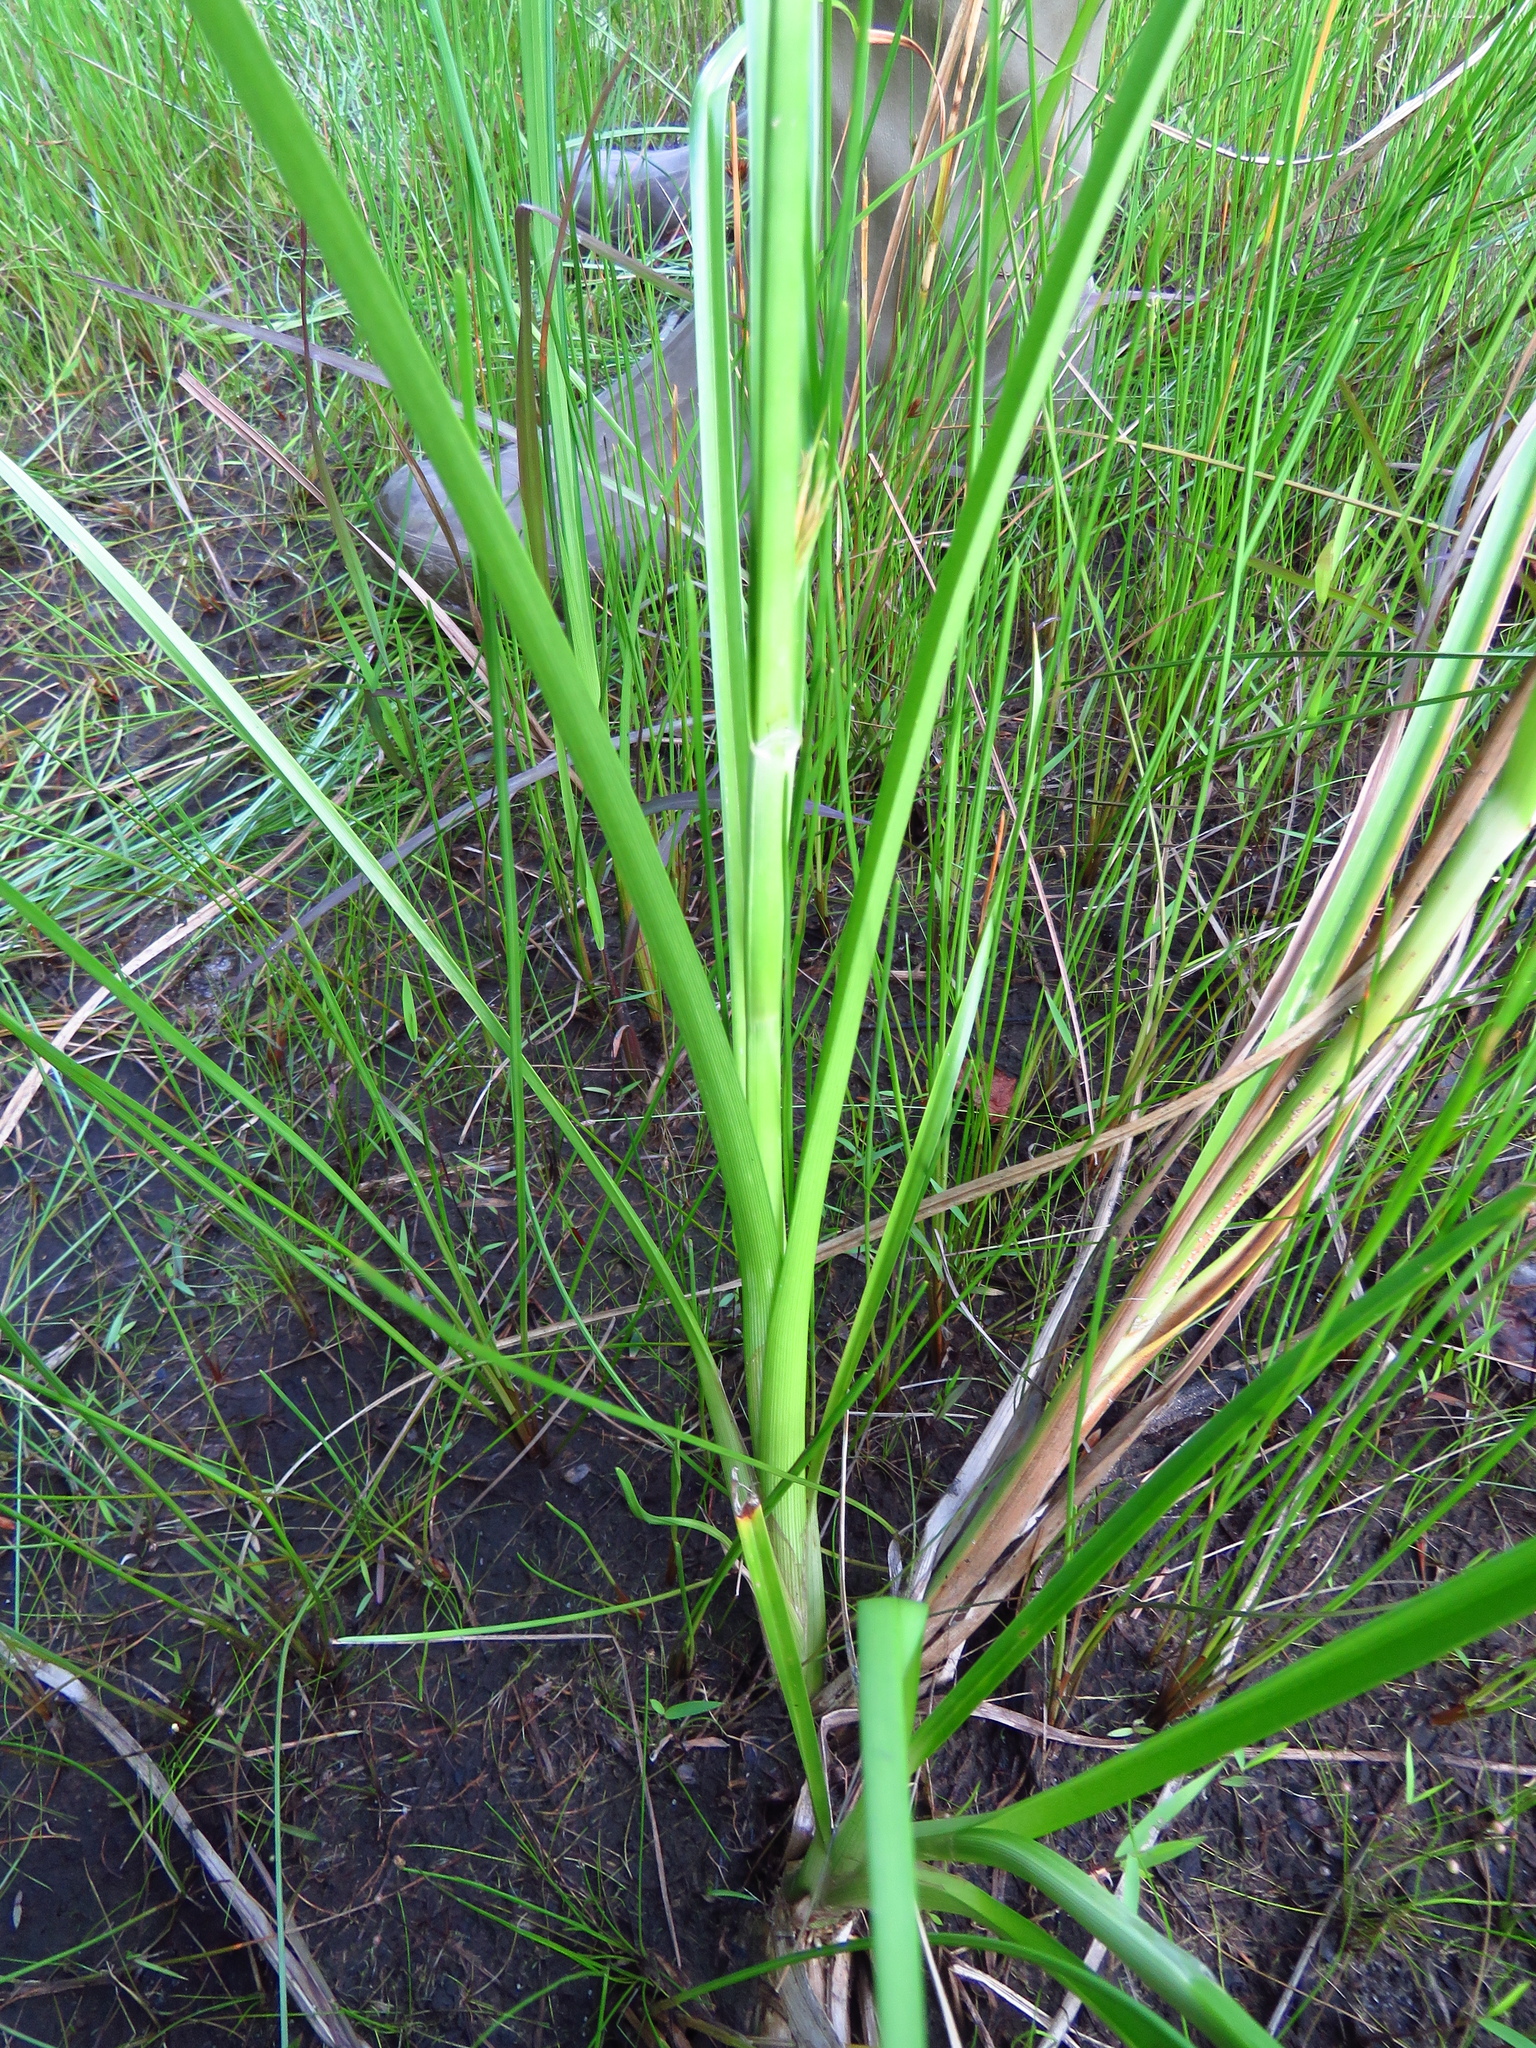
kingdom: Plantae
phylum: Tracheophyta
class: Liliopsida
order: Poales
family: Cyperaceae
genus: Rhynchospora
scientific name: Rhynchospora macrostachya
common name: Tall beakrush
